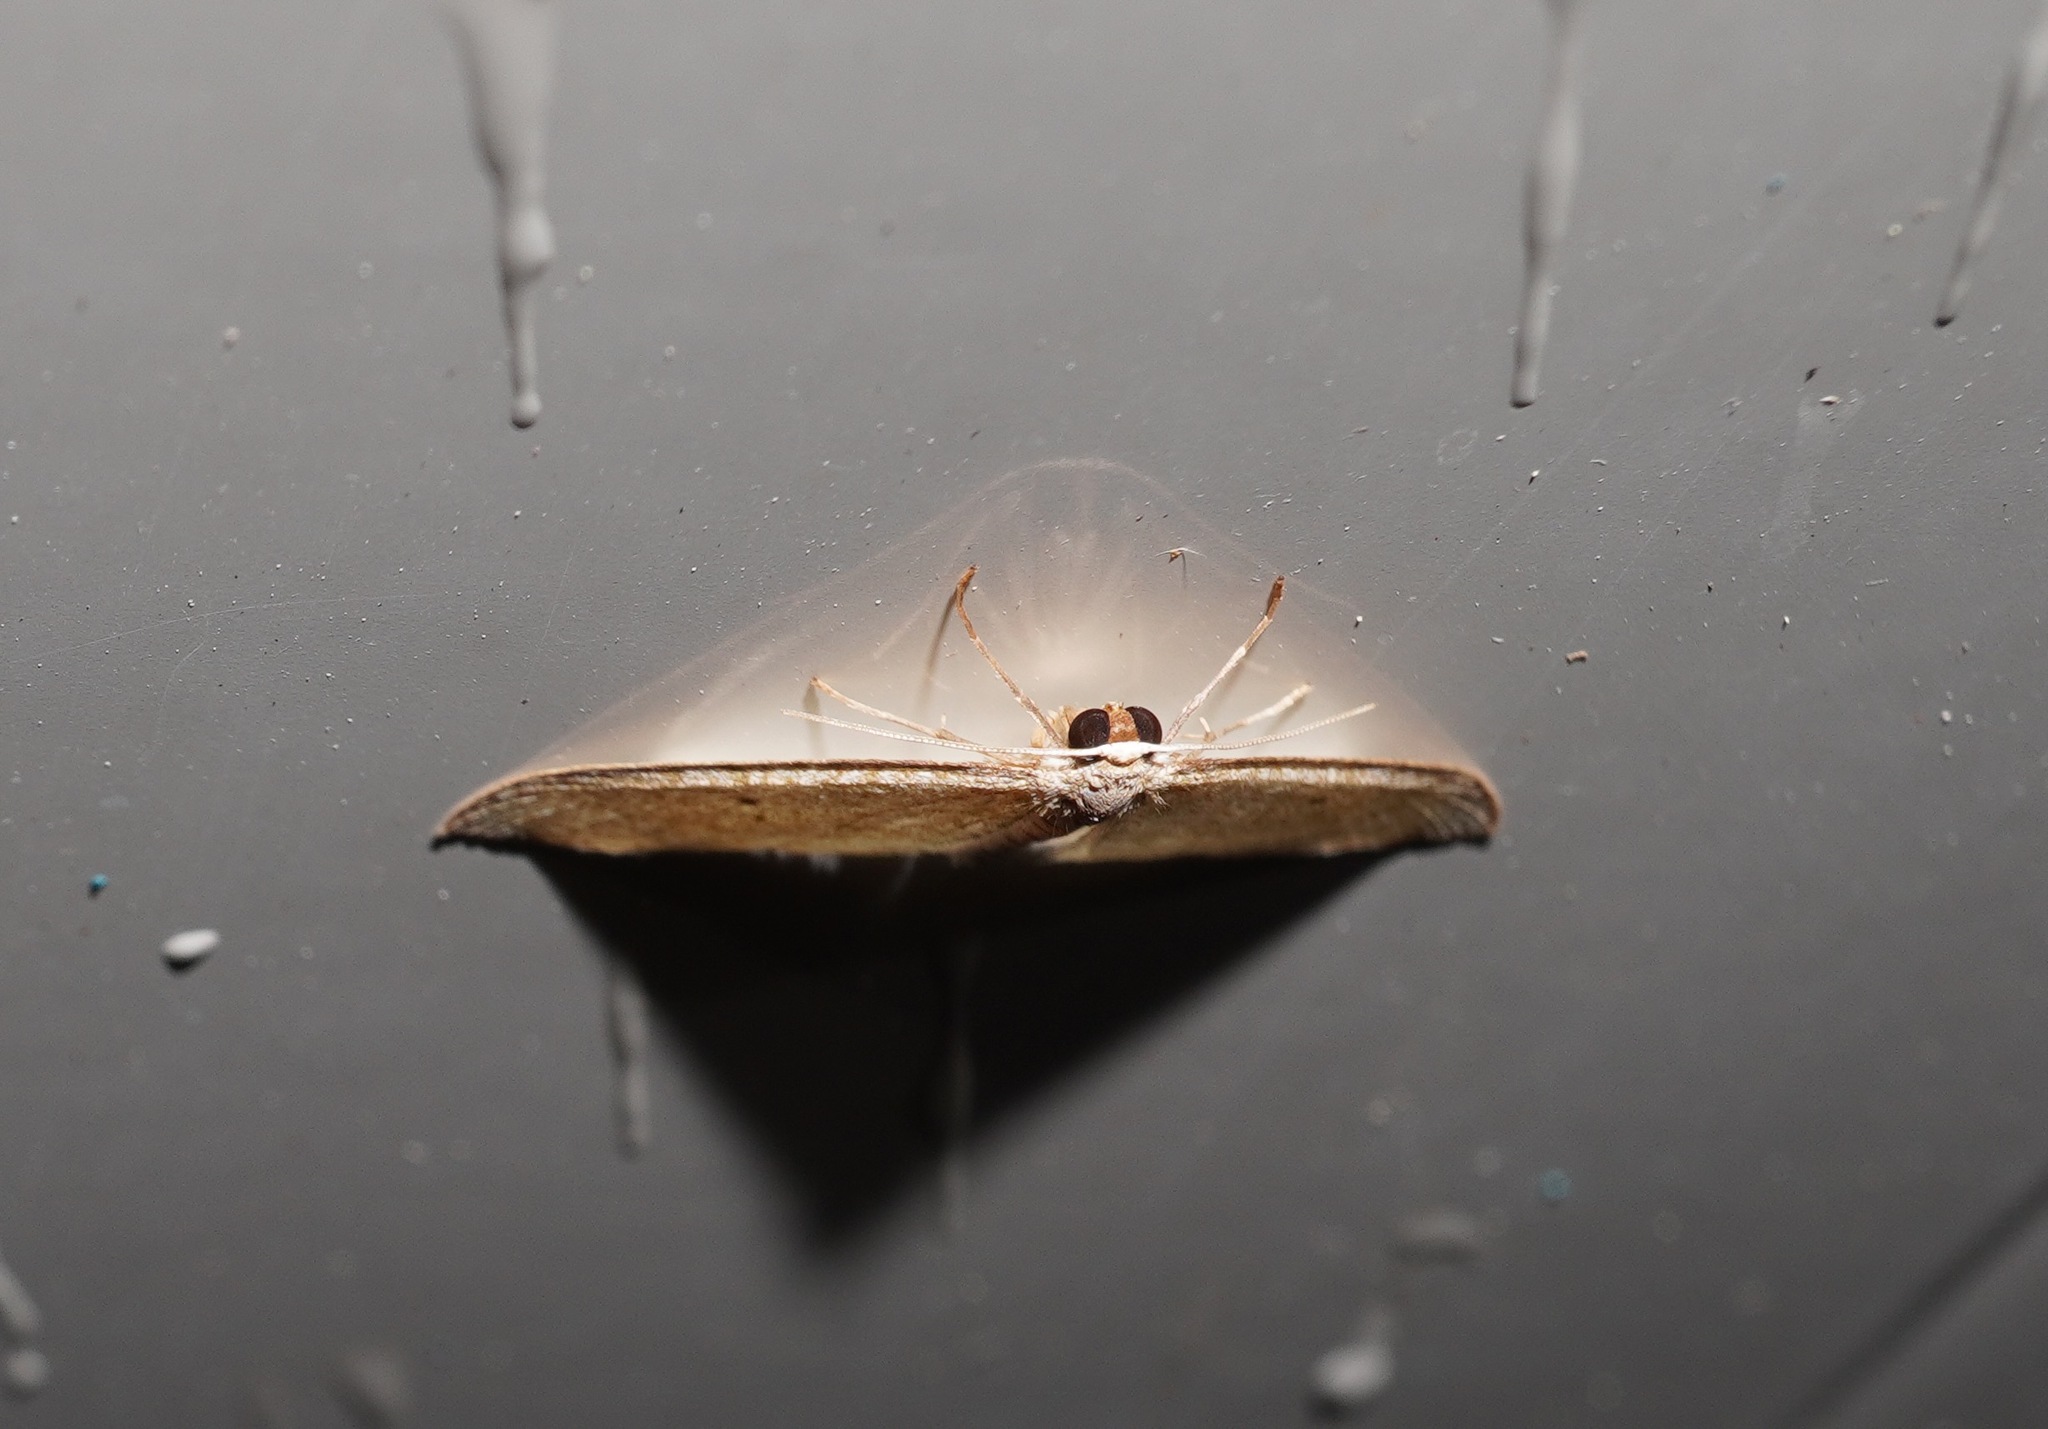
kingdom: Animalia
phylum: Arthropoda
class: Insecta
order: Lepidoptera
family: Geometridae
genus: Poecilasthena
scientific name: Poecilasthena pulchraria
